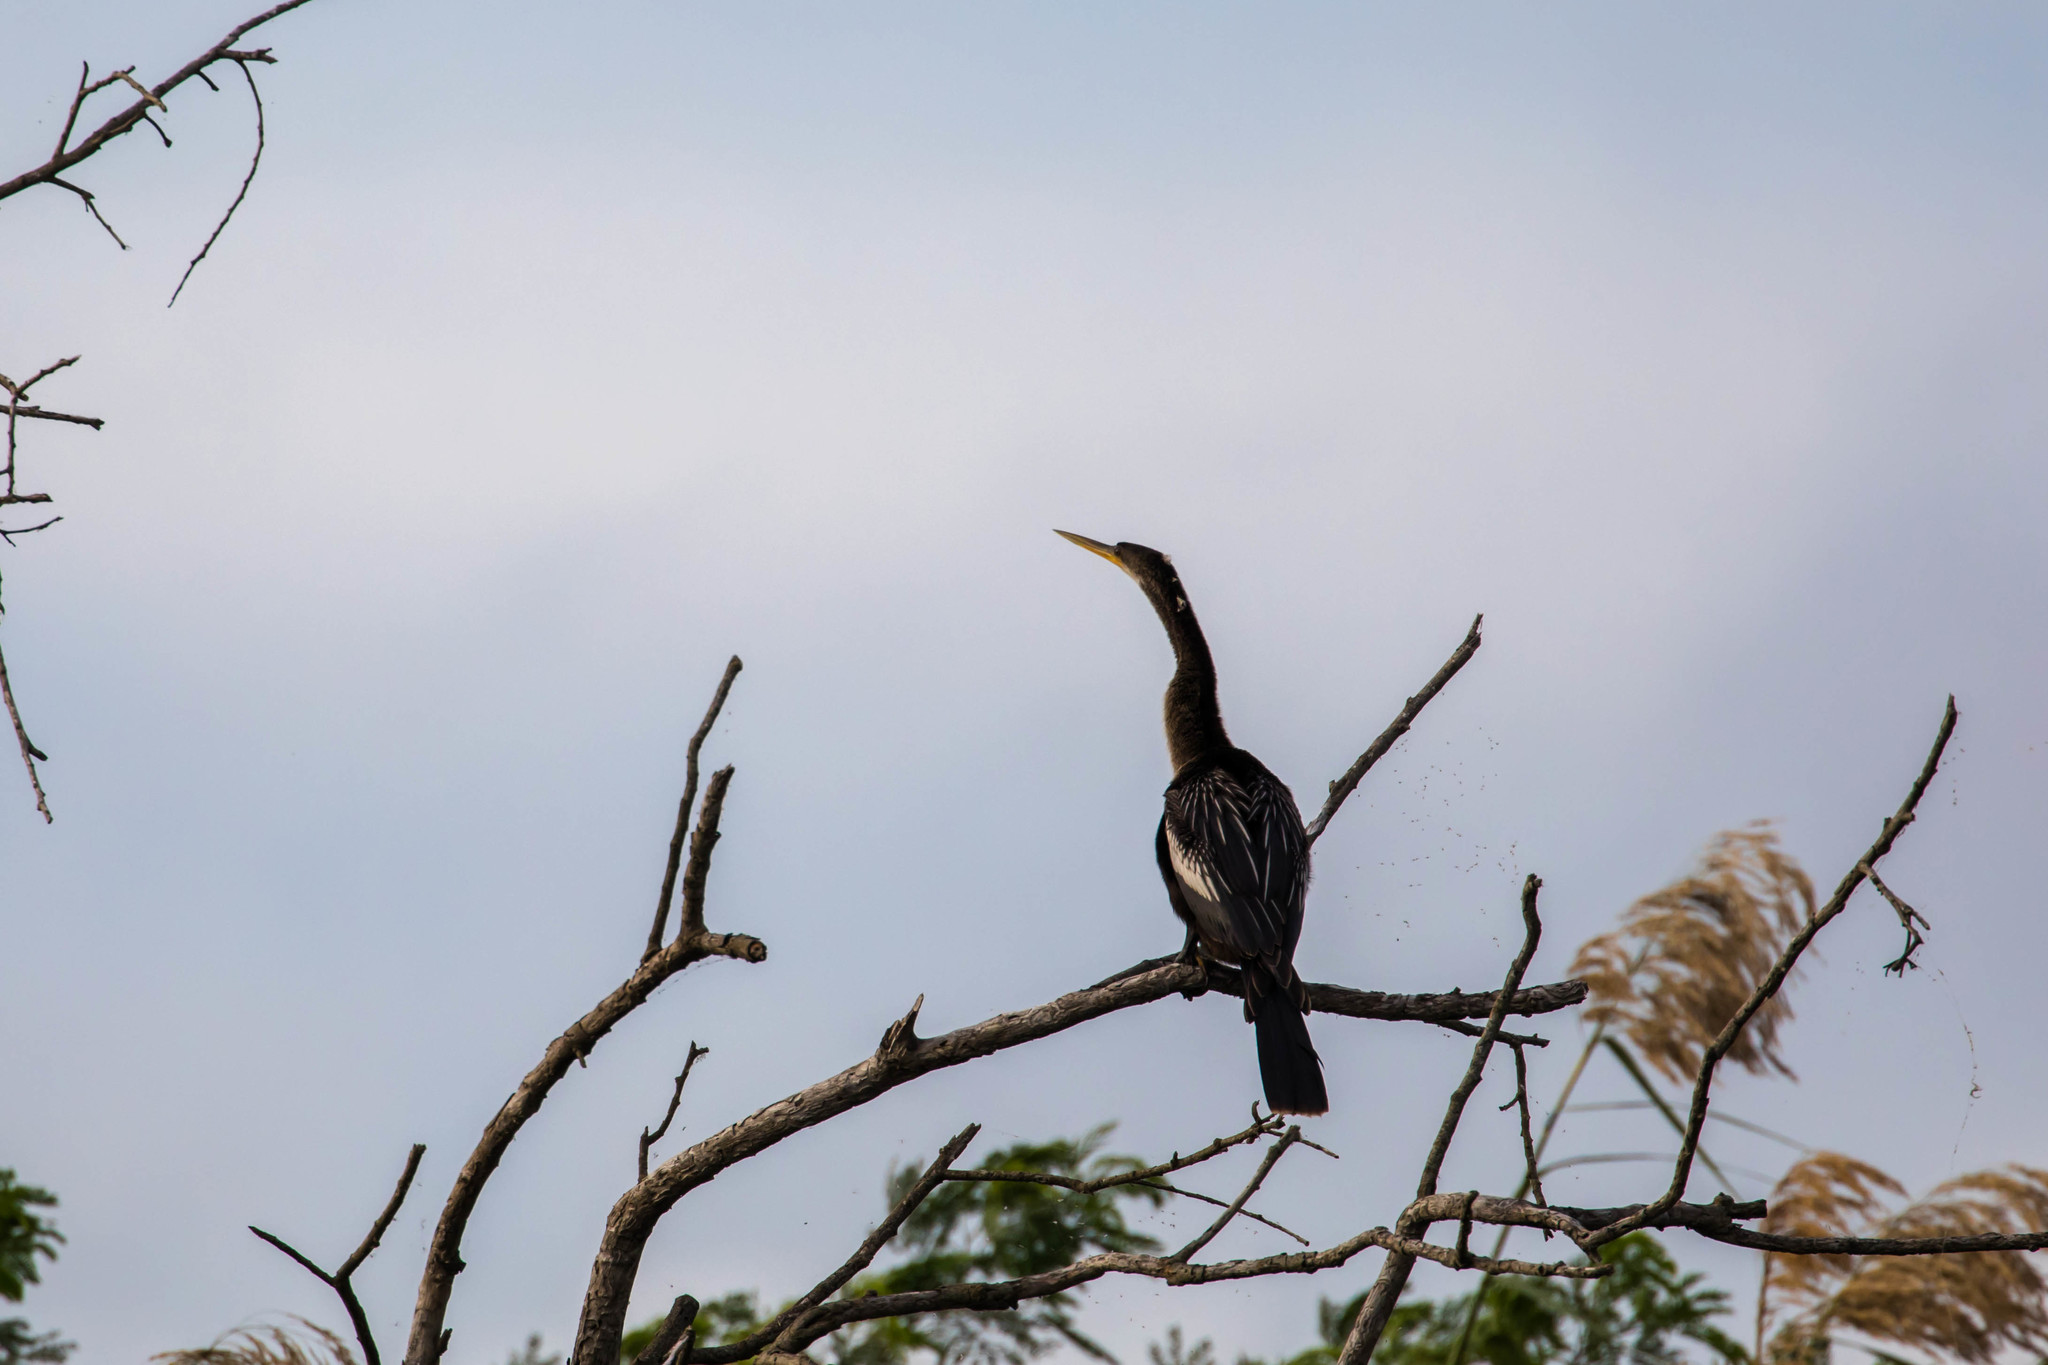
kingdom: Animalia
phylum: Chordata
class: Aves
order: Suliformes
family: Anhingidae
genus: Anhinga
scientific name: Anhinga anhinga
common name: Anhinga
